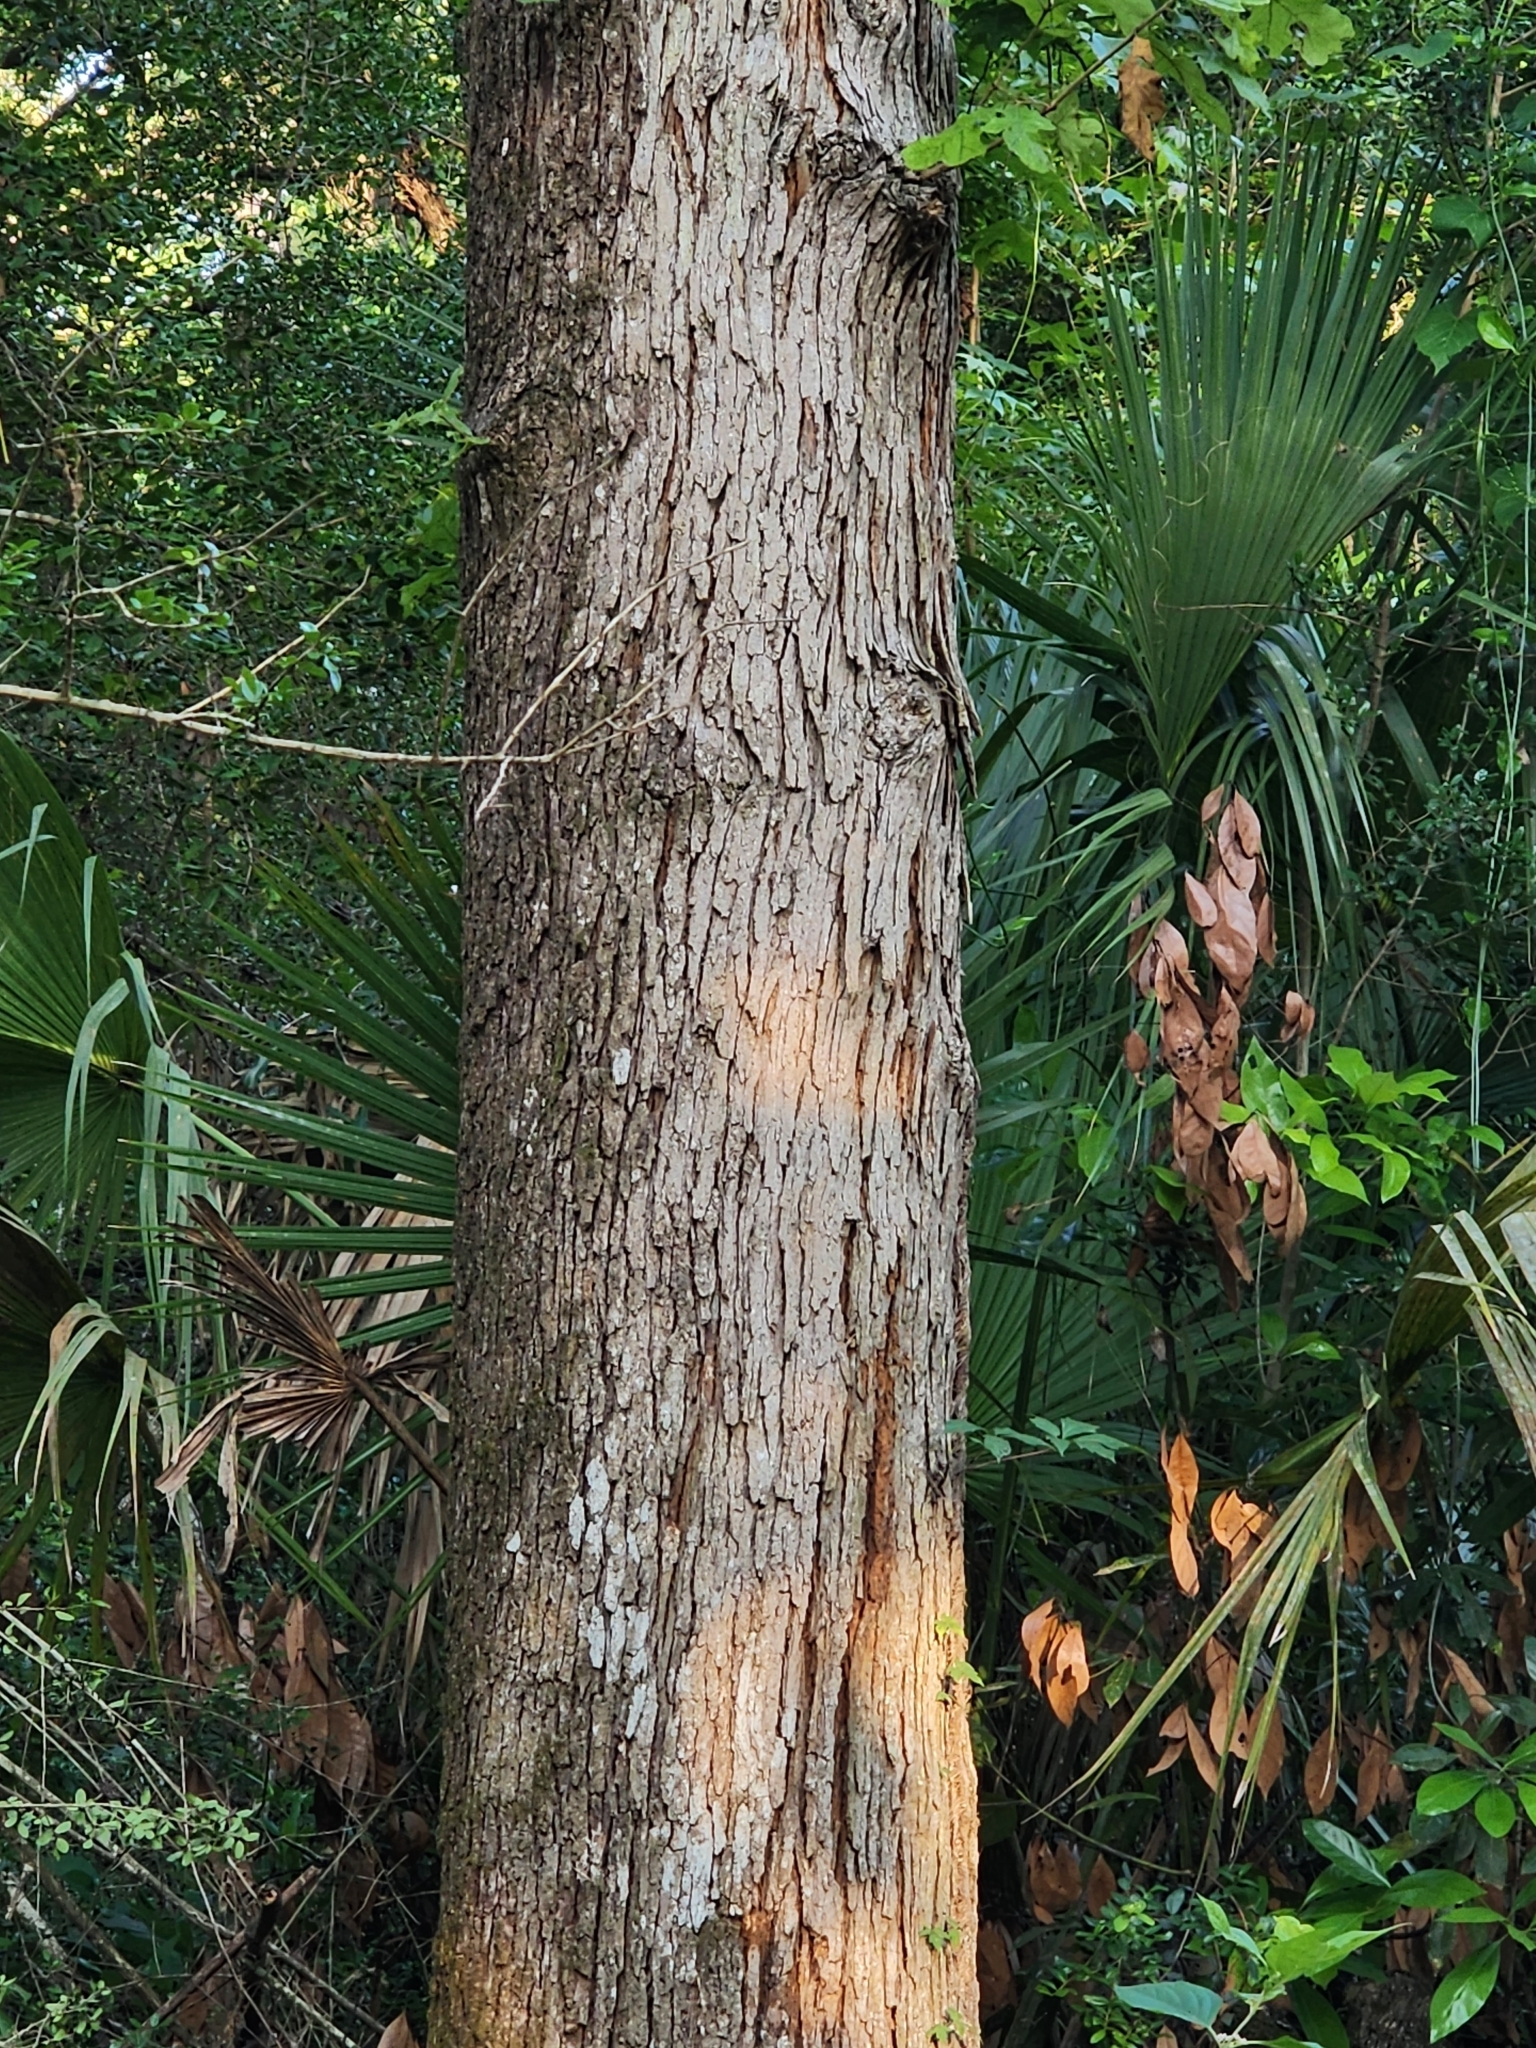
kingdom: Plantae
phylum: Tracheophyta
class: Magnoliopsida
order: Fagales
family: Fagaceae
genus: Quercus
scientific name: Quercus stellata
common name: Post oak
